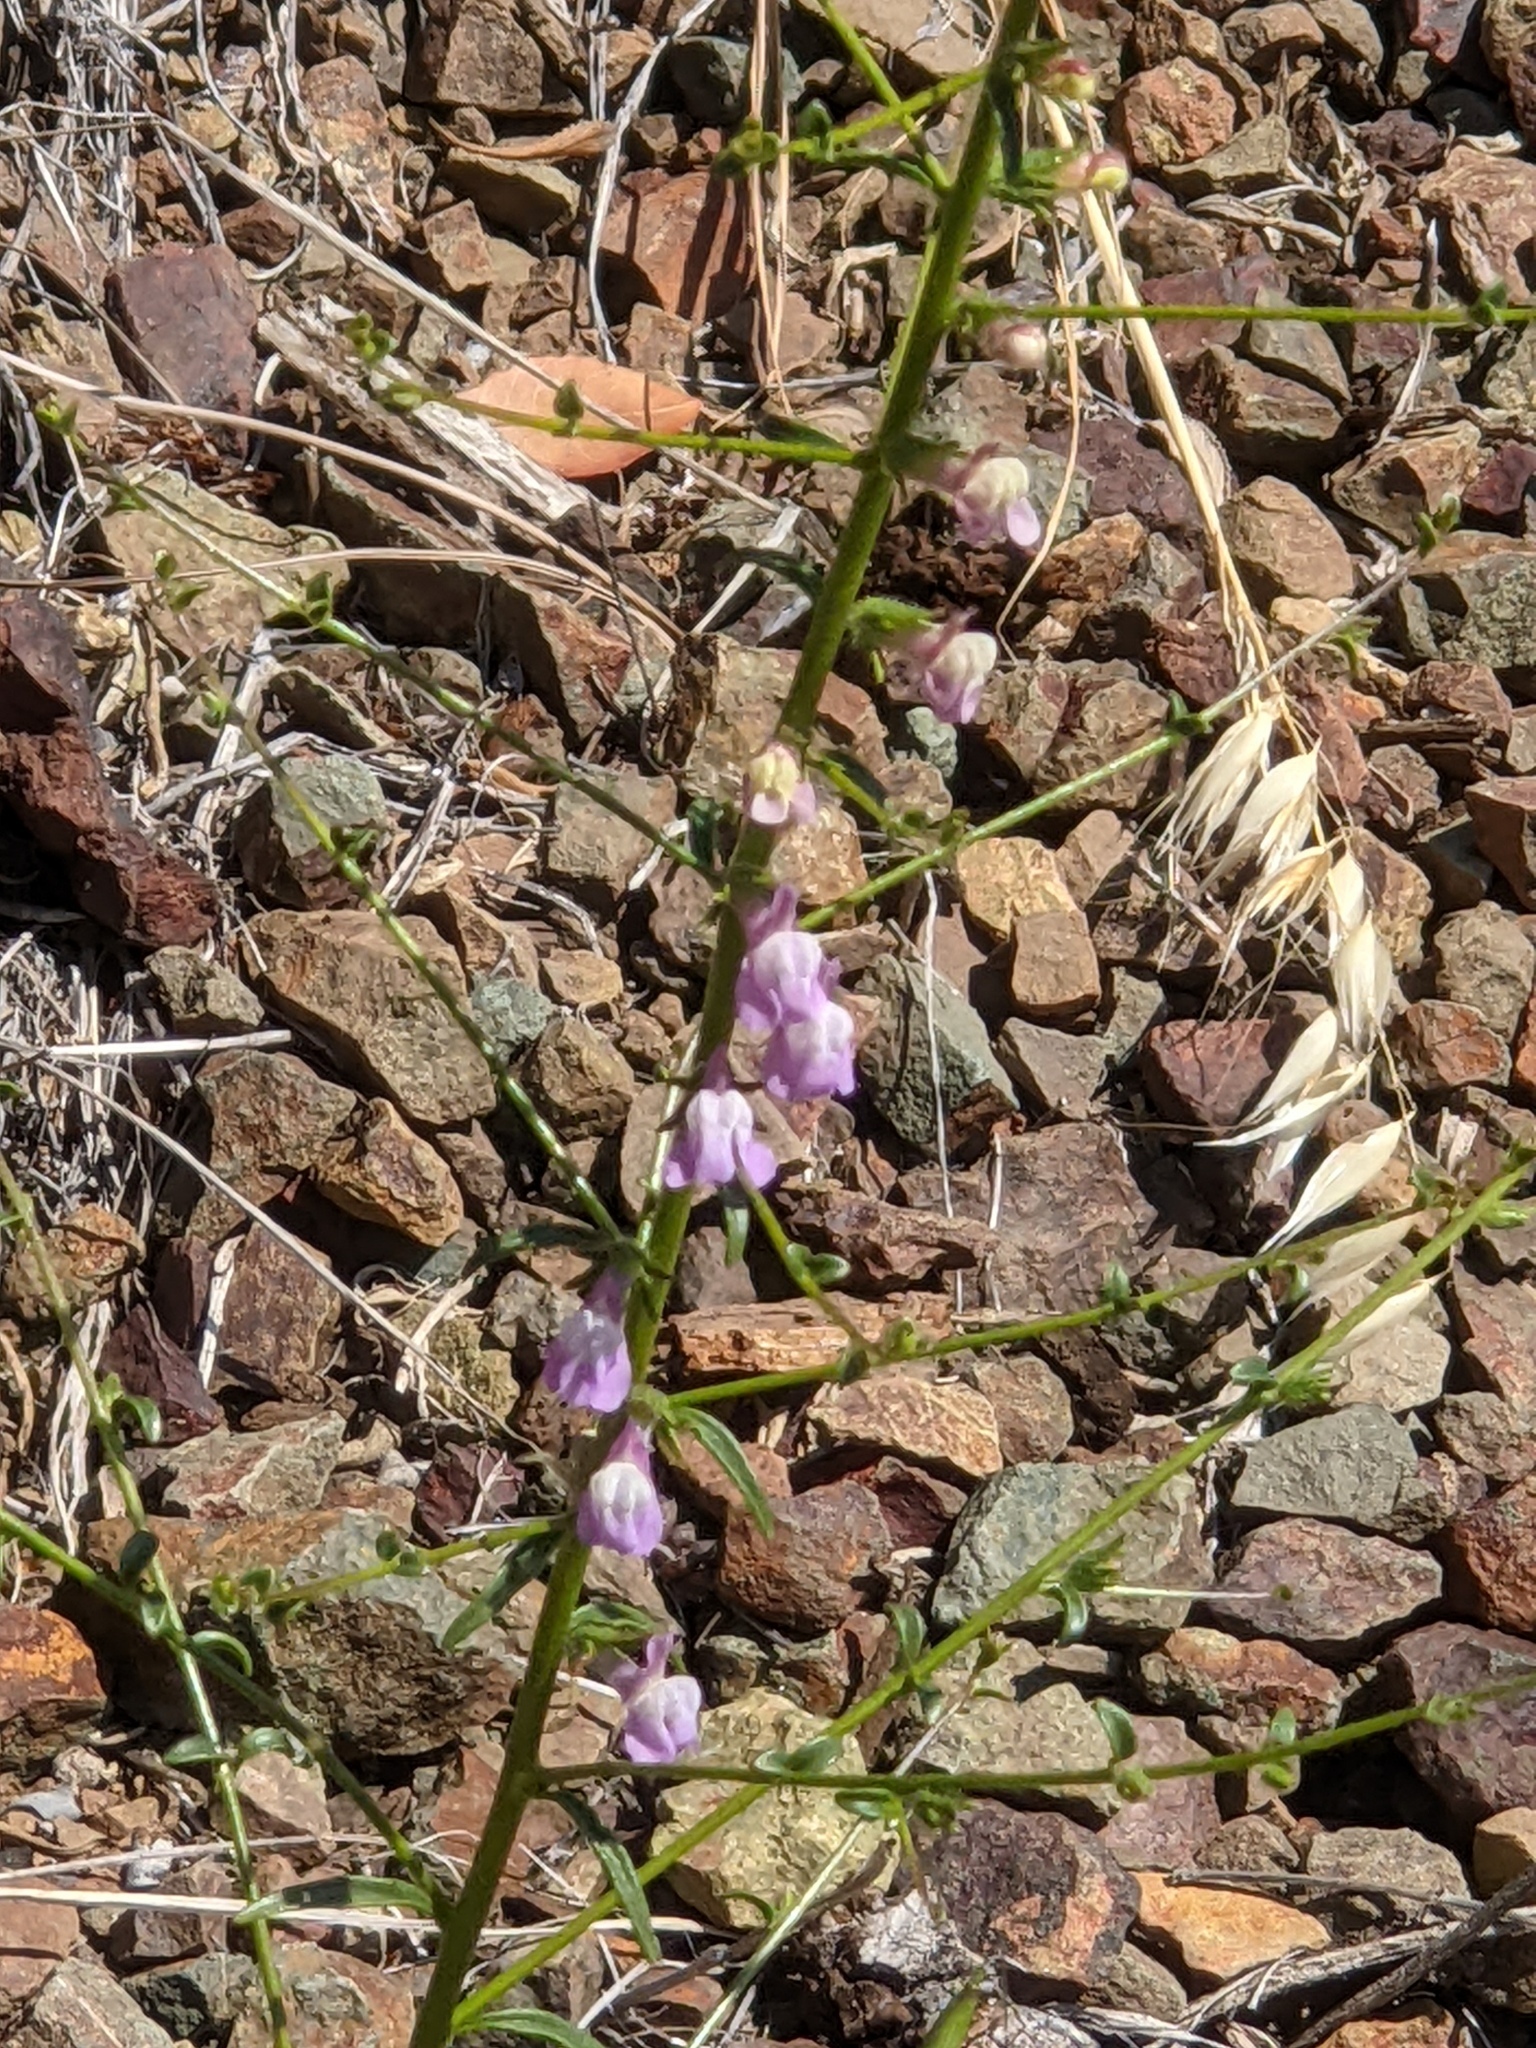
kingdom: Plantae
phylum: Tracheophyta
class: Magnoliopsida
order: Lamiales
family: Plantaginaceae
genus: Sairocarpus
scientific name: Sairocarpus vexillocalyculatus
